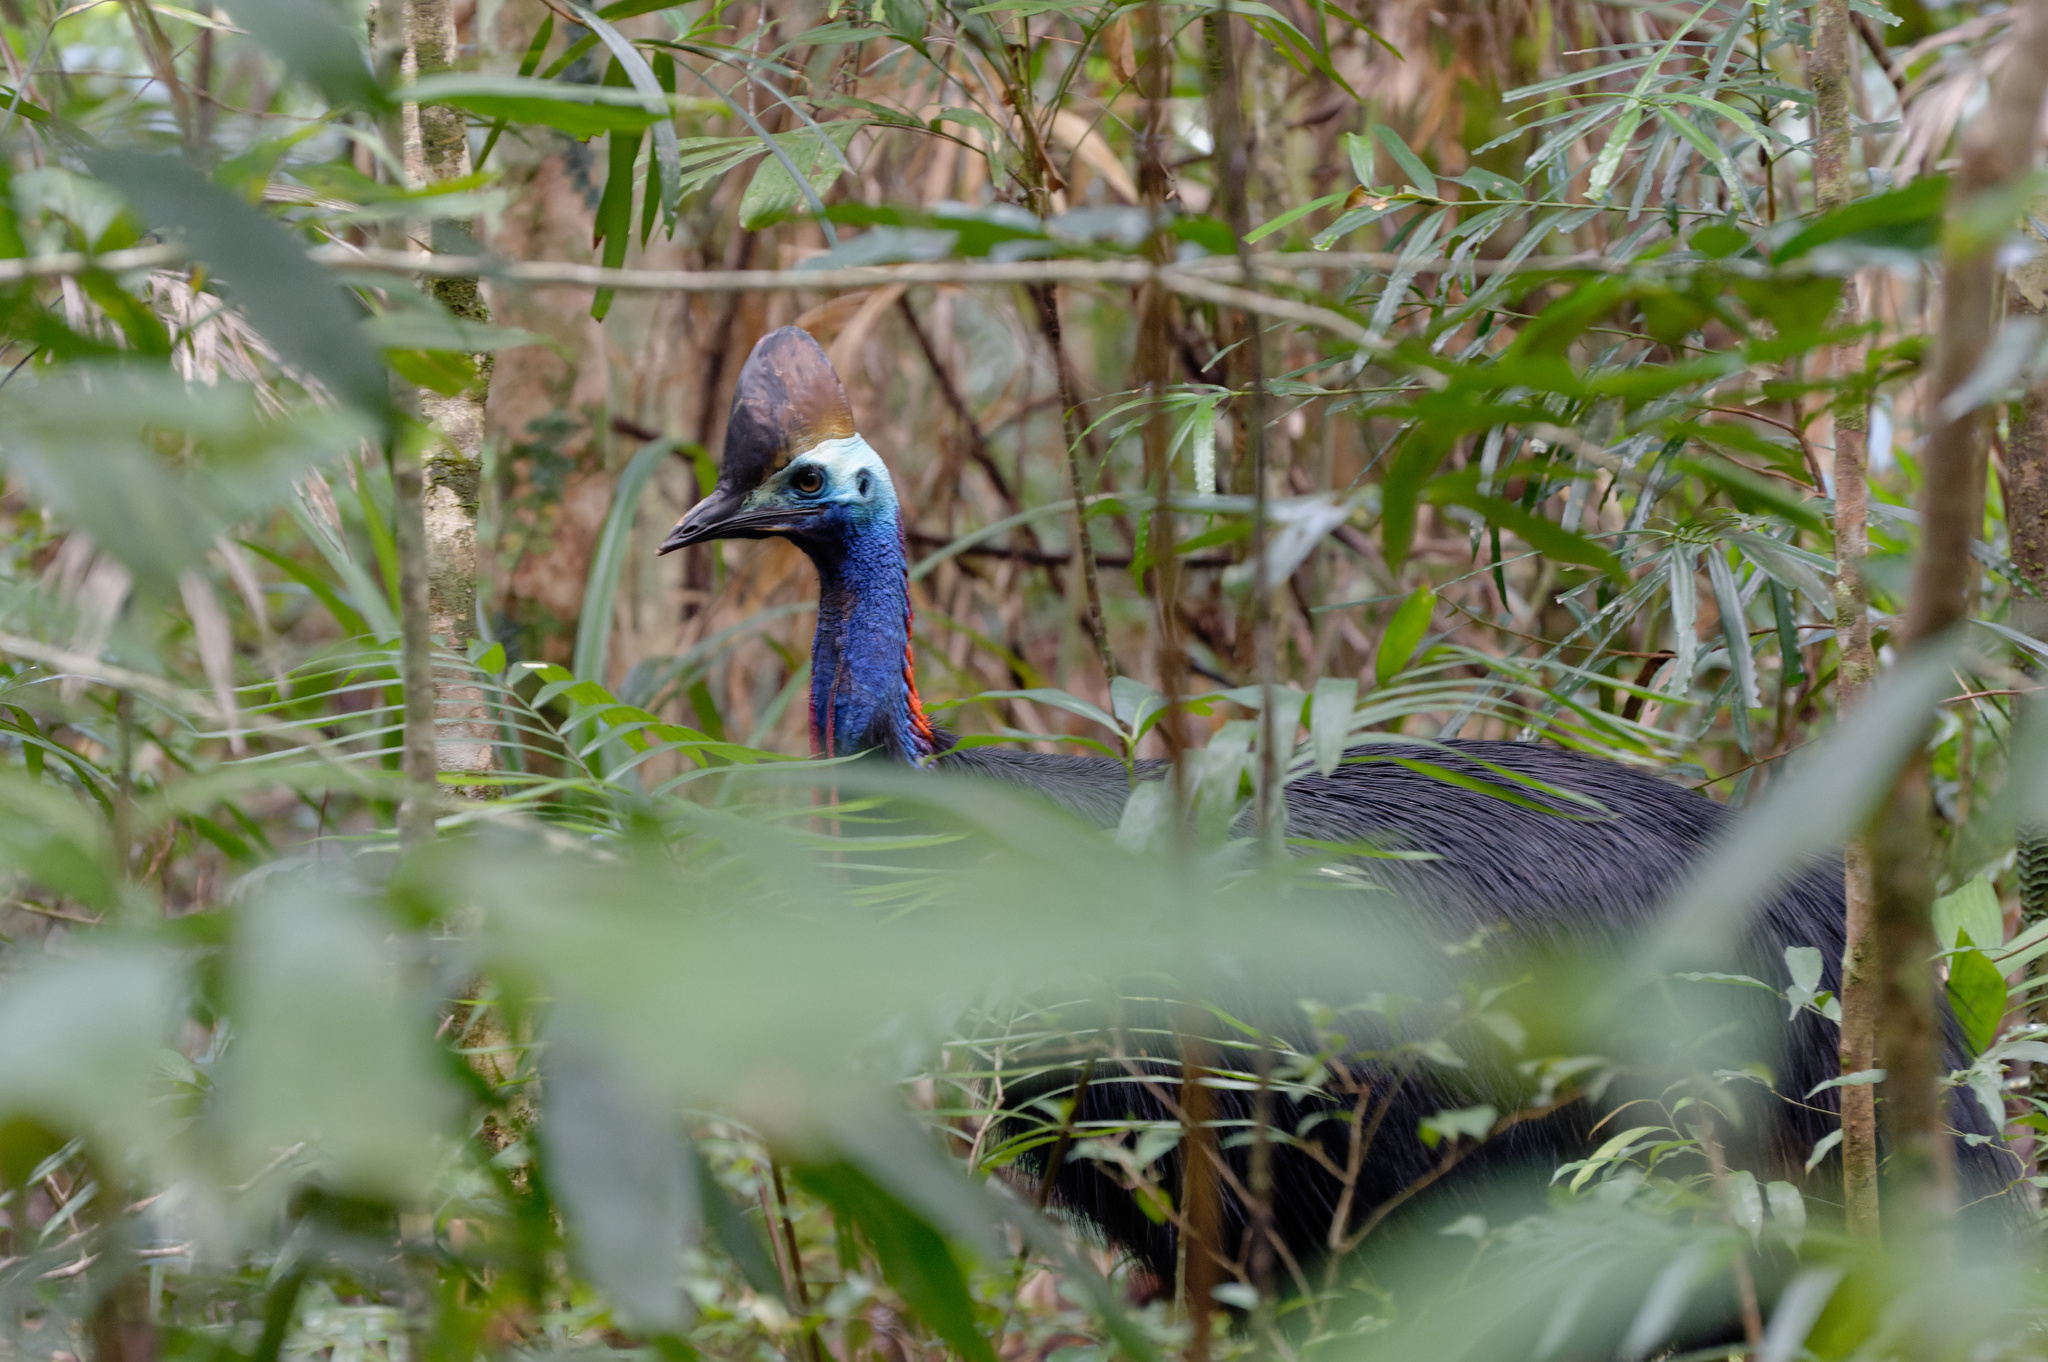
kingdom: Animalia
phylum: Chordata
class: Aves
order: Casuariiformes
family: Casuariidae
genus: Casuarius
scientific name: Casuarius casuarius
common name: Southern cassowary
